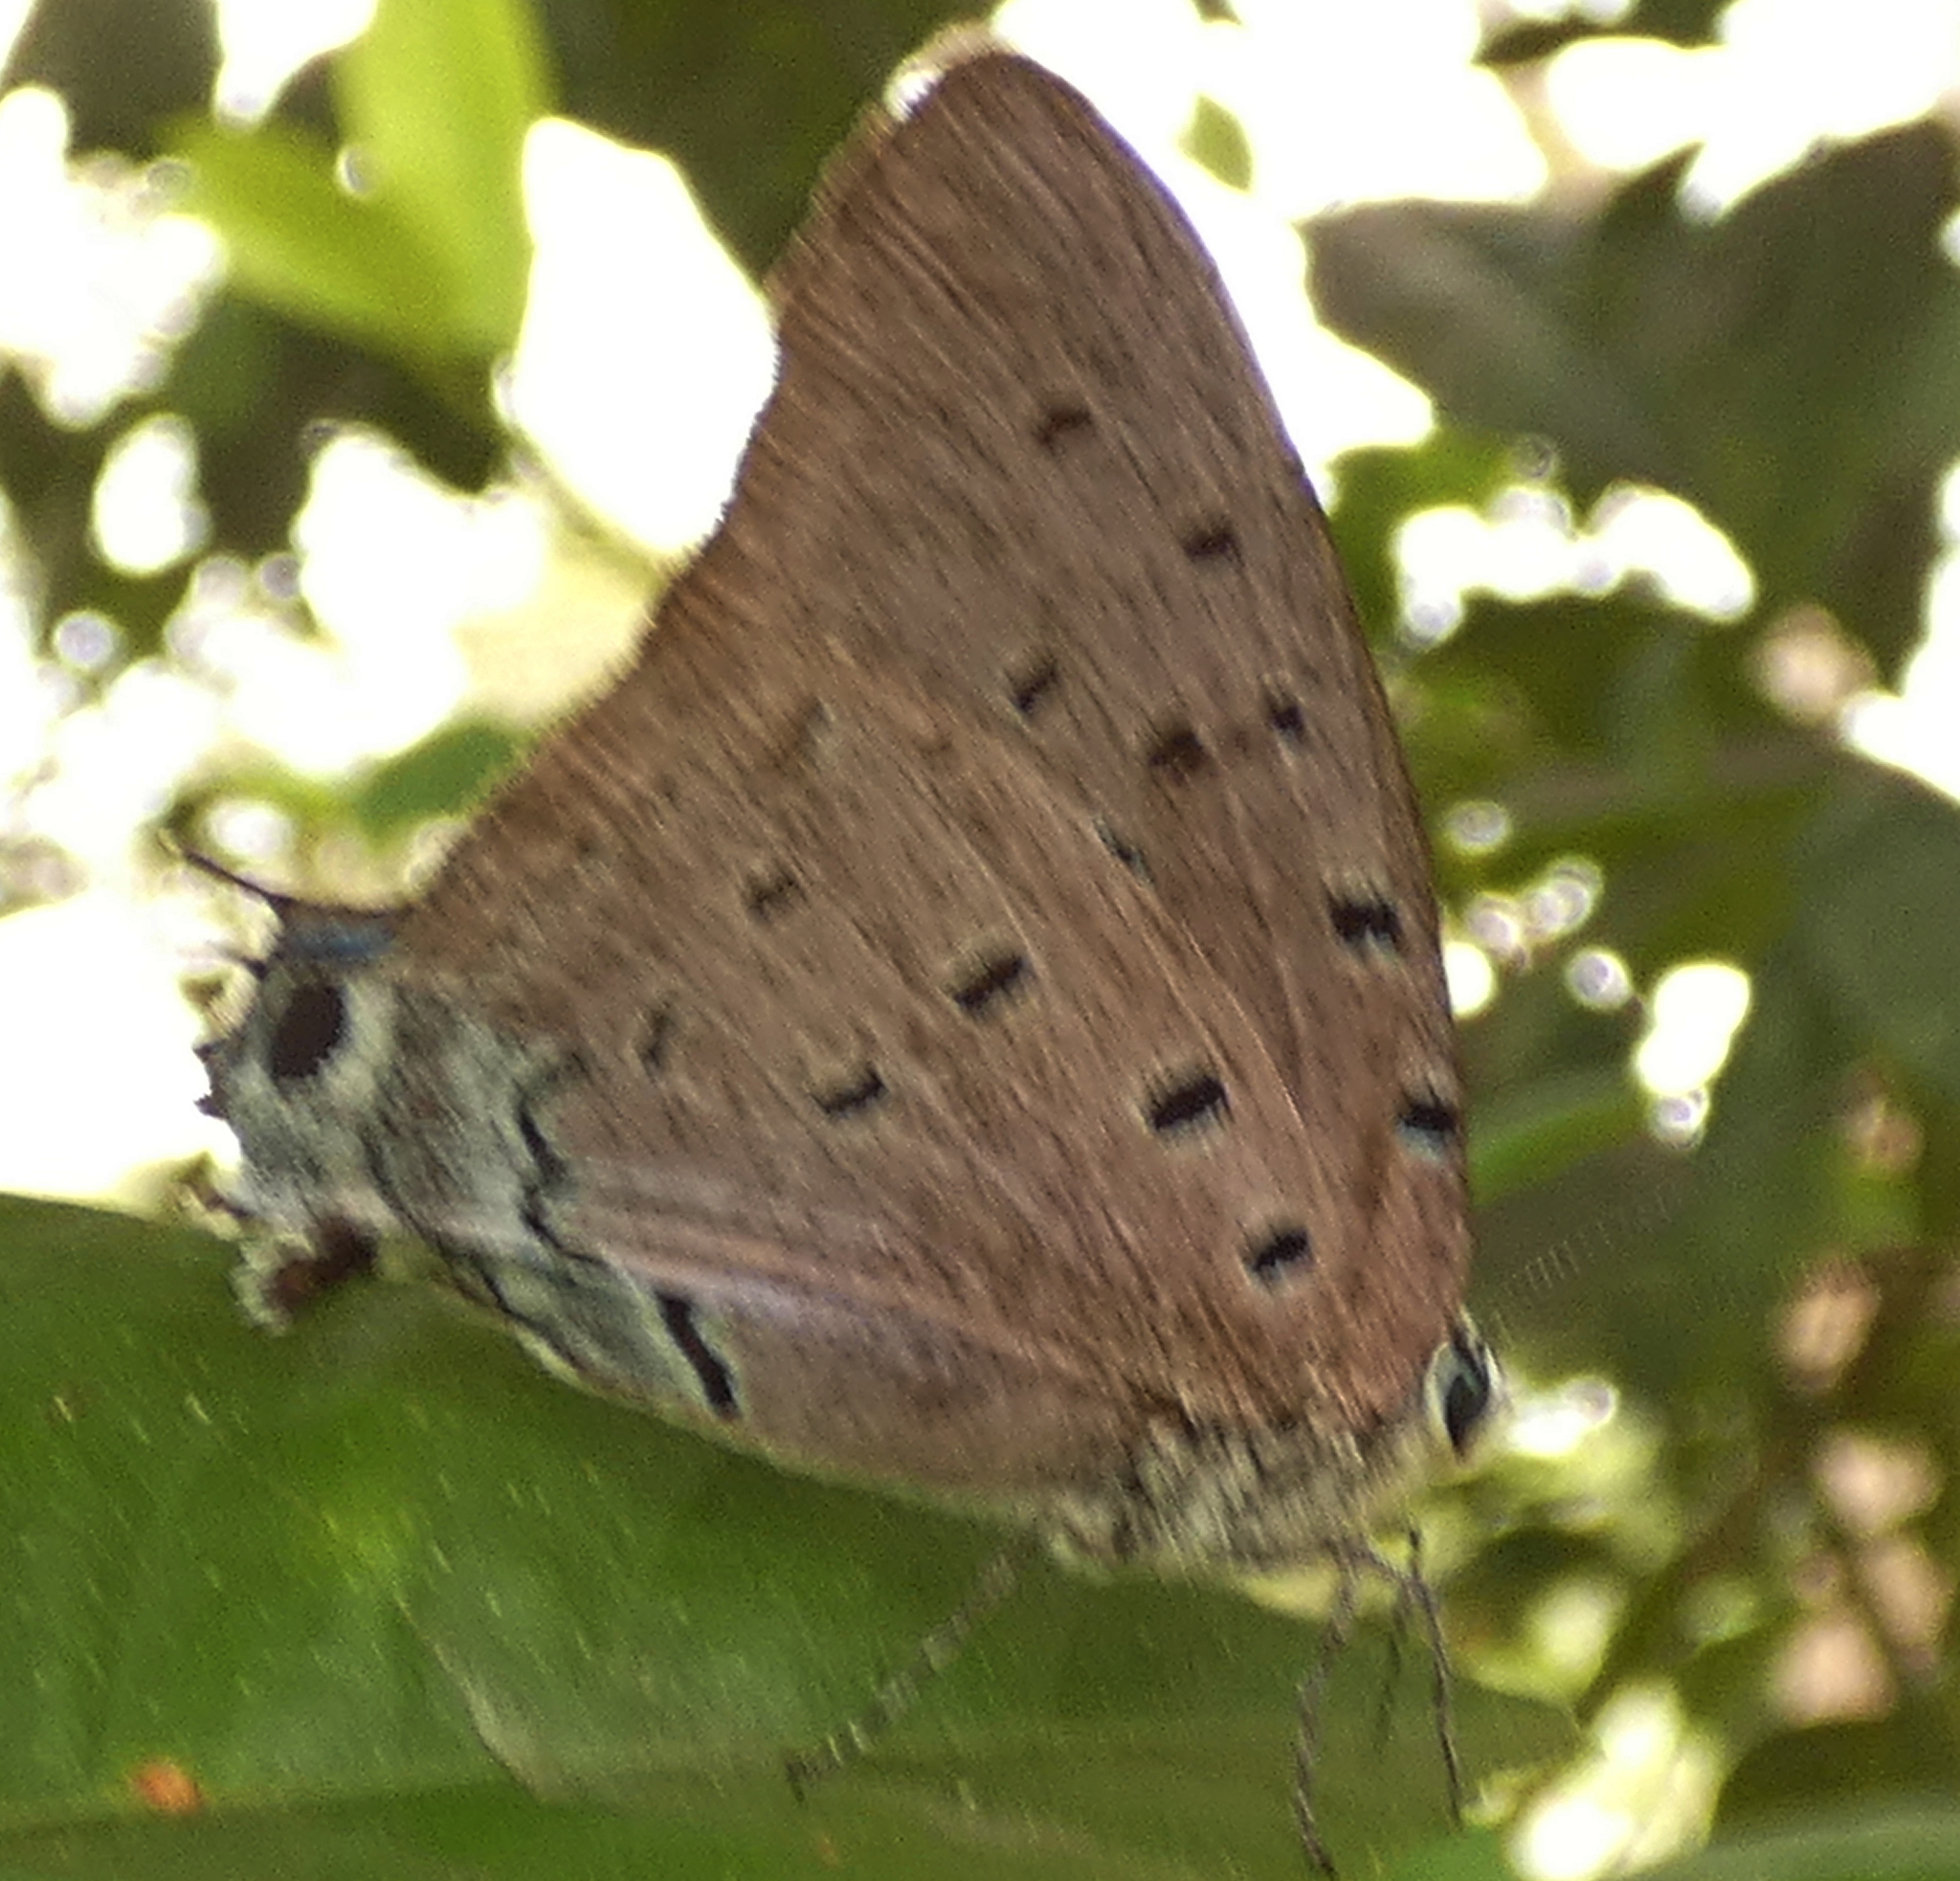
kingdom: Animalia
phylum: Arthropoda
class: Insecta
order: Lepidoptera
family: Lycaenidae
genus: Pseudolycaena
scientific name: Pseudolycaena marsyas
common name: Marsyas hairstreak
